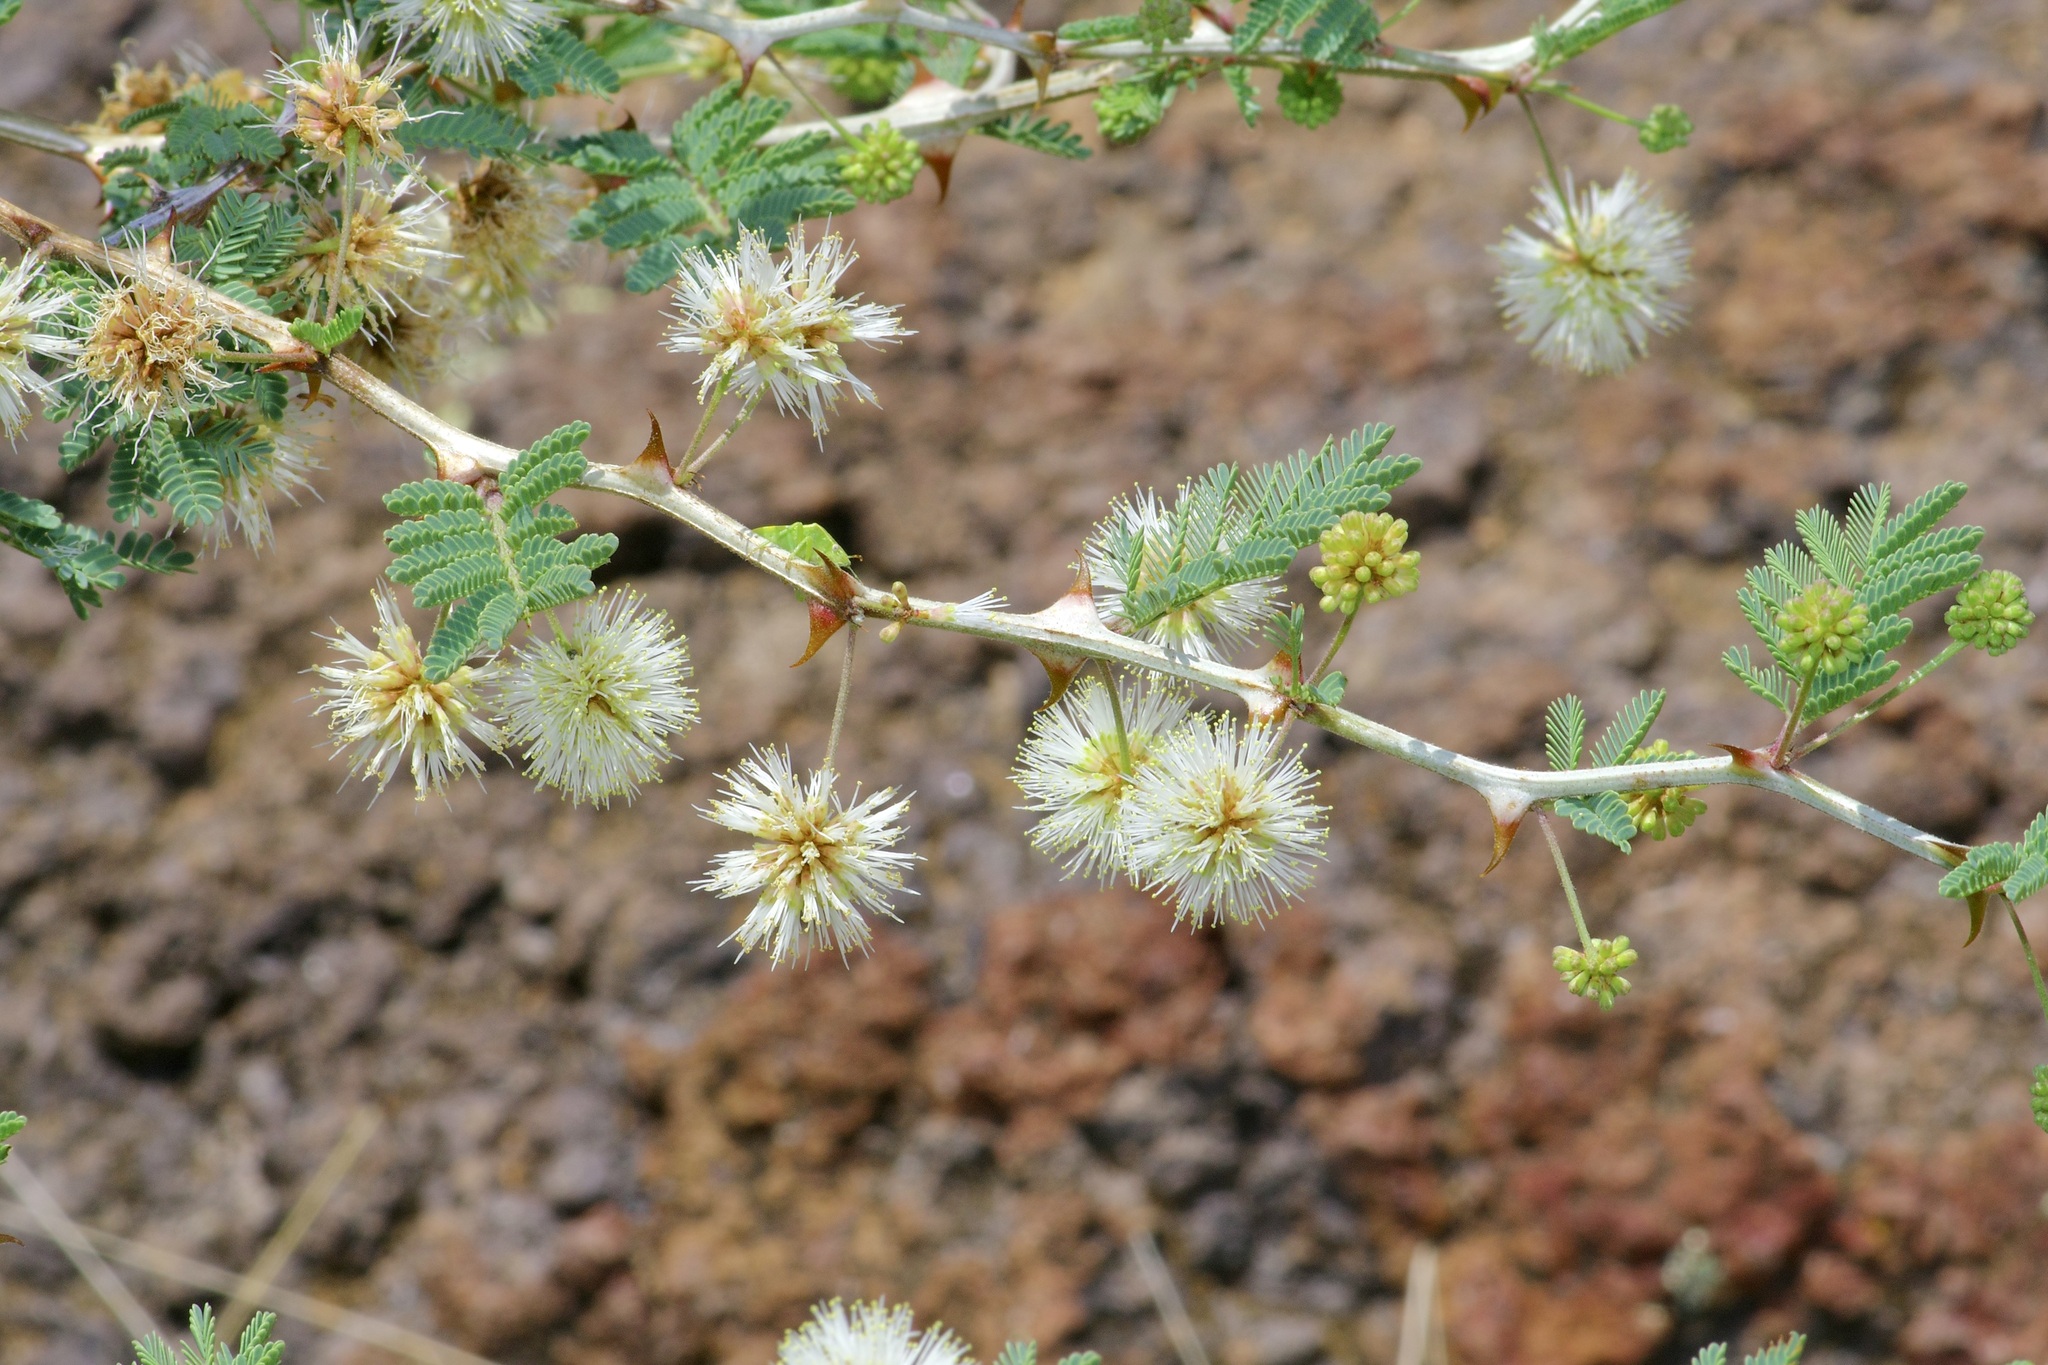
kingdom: Plantae
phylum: Tracheophyta
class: Magnoliopsida
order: Fabales
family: Fabaceae
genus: Mimosa
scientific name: Mimosa aculeaticarpa
